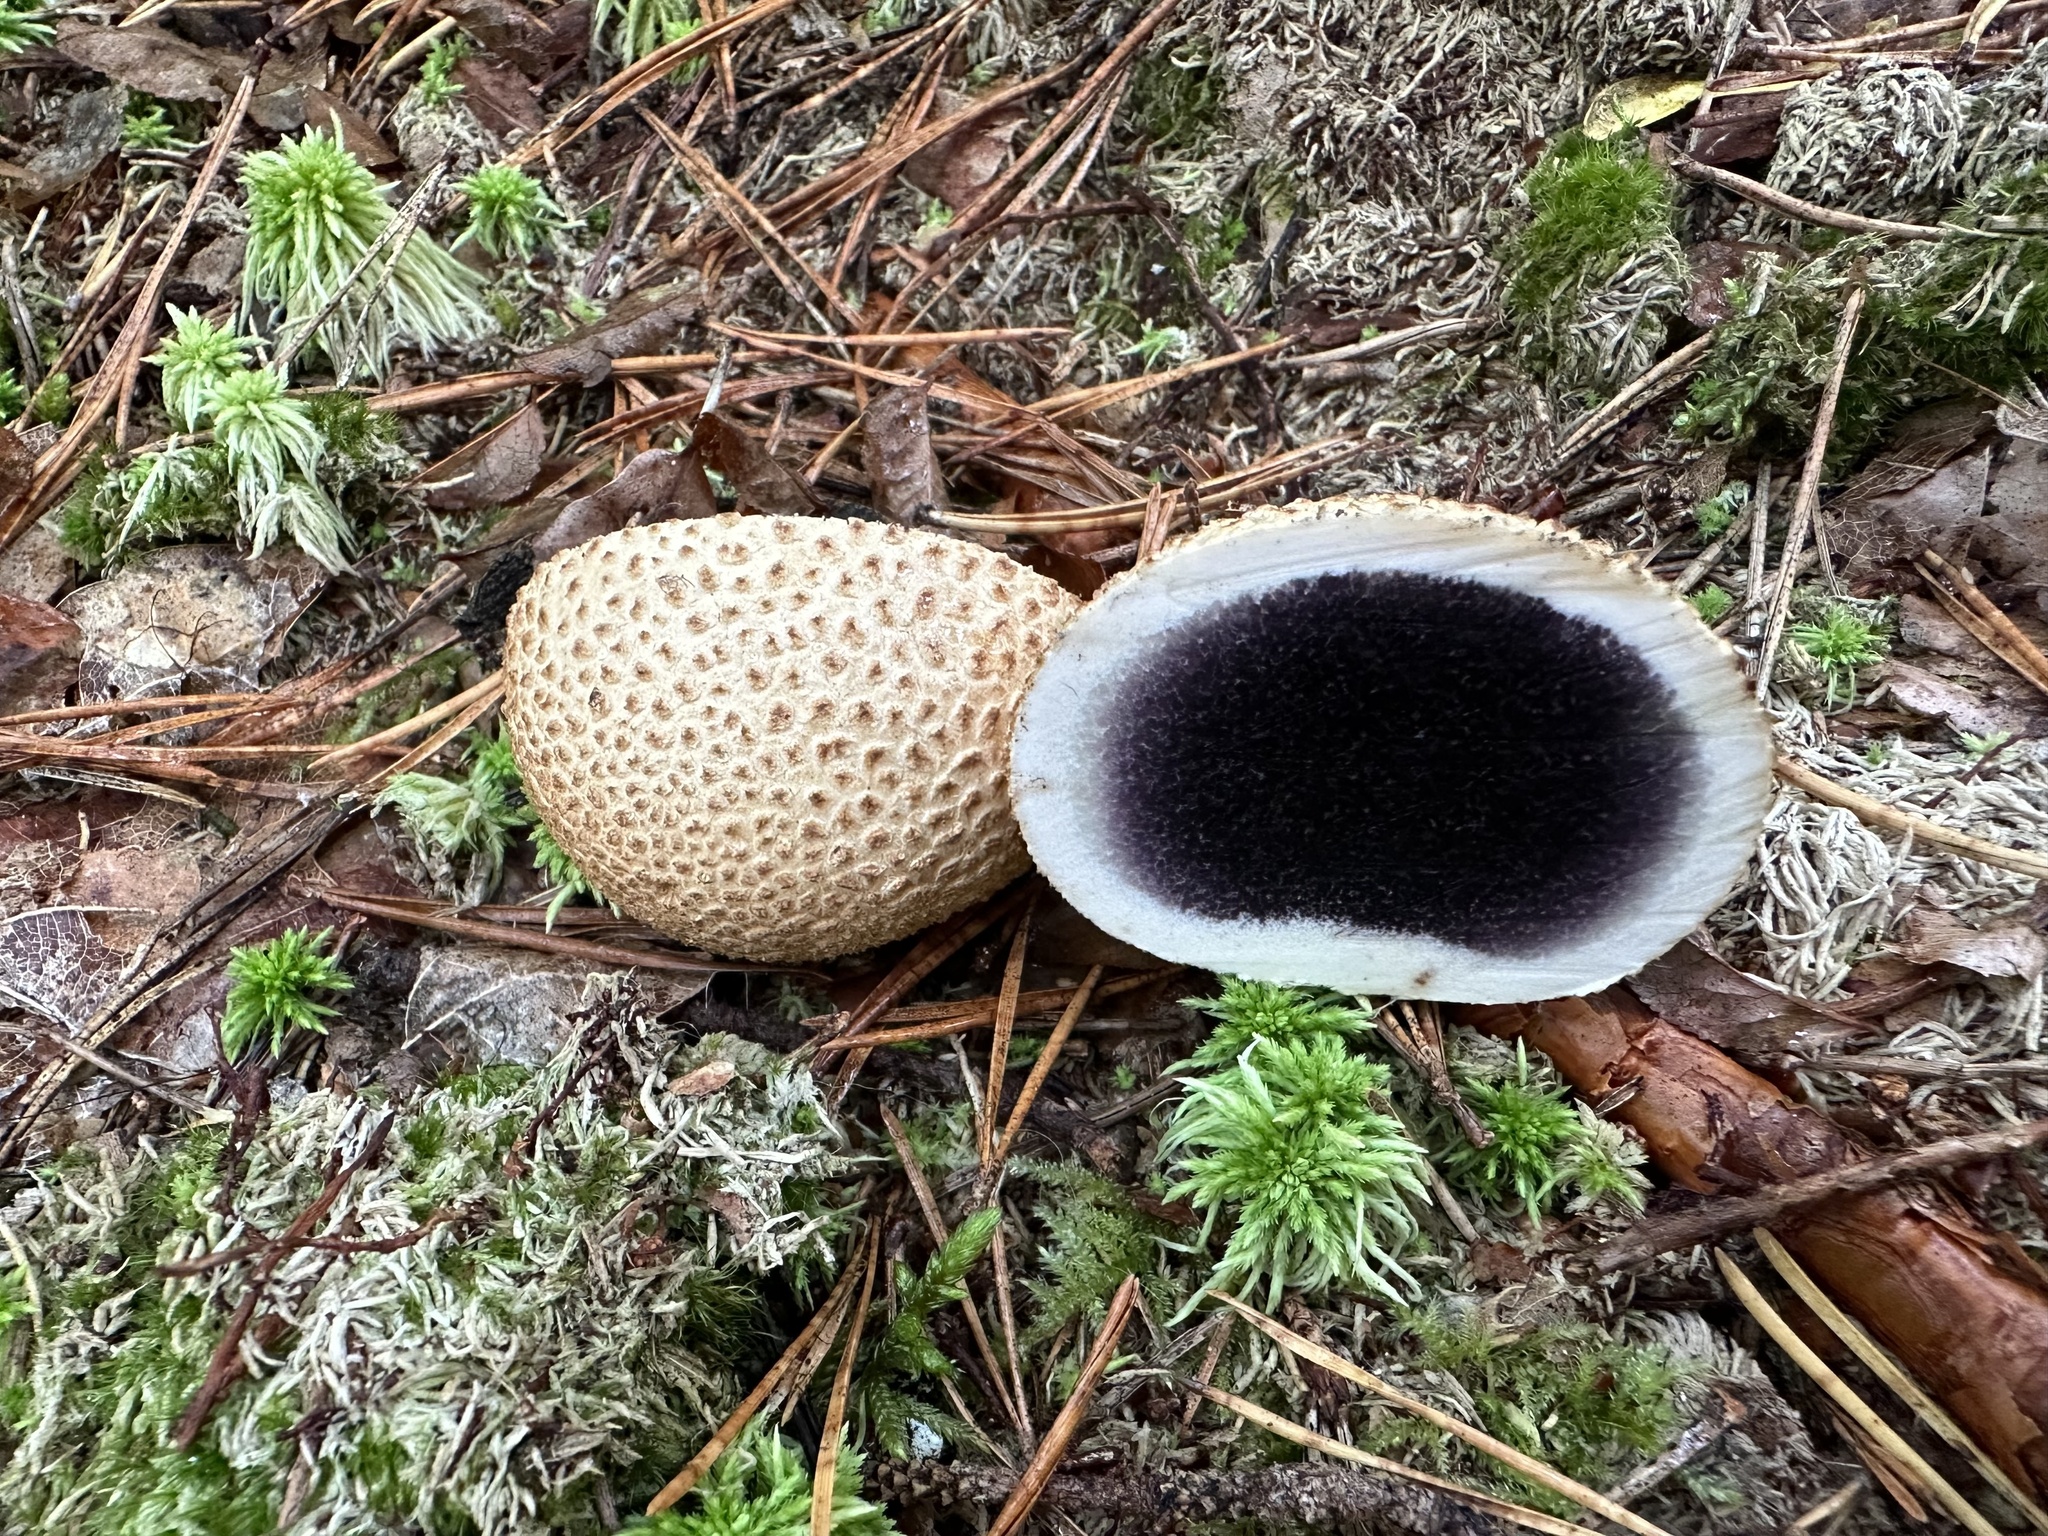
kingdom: Fungi
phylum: Basidiomycota
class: Agaricomycetes
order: Boletales
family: Sclerodermataceae
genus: Scleroderma
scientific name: Scleroderma citrinum
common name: Common earthball
